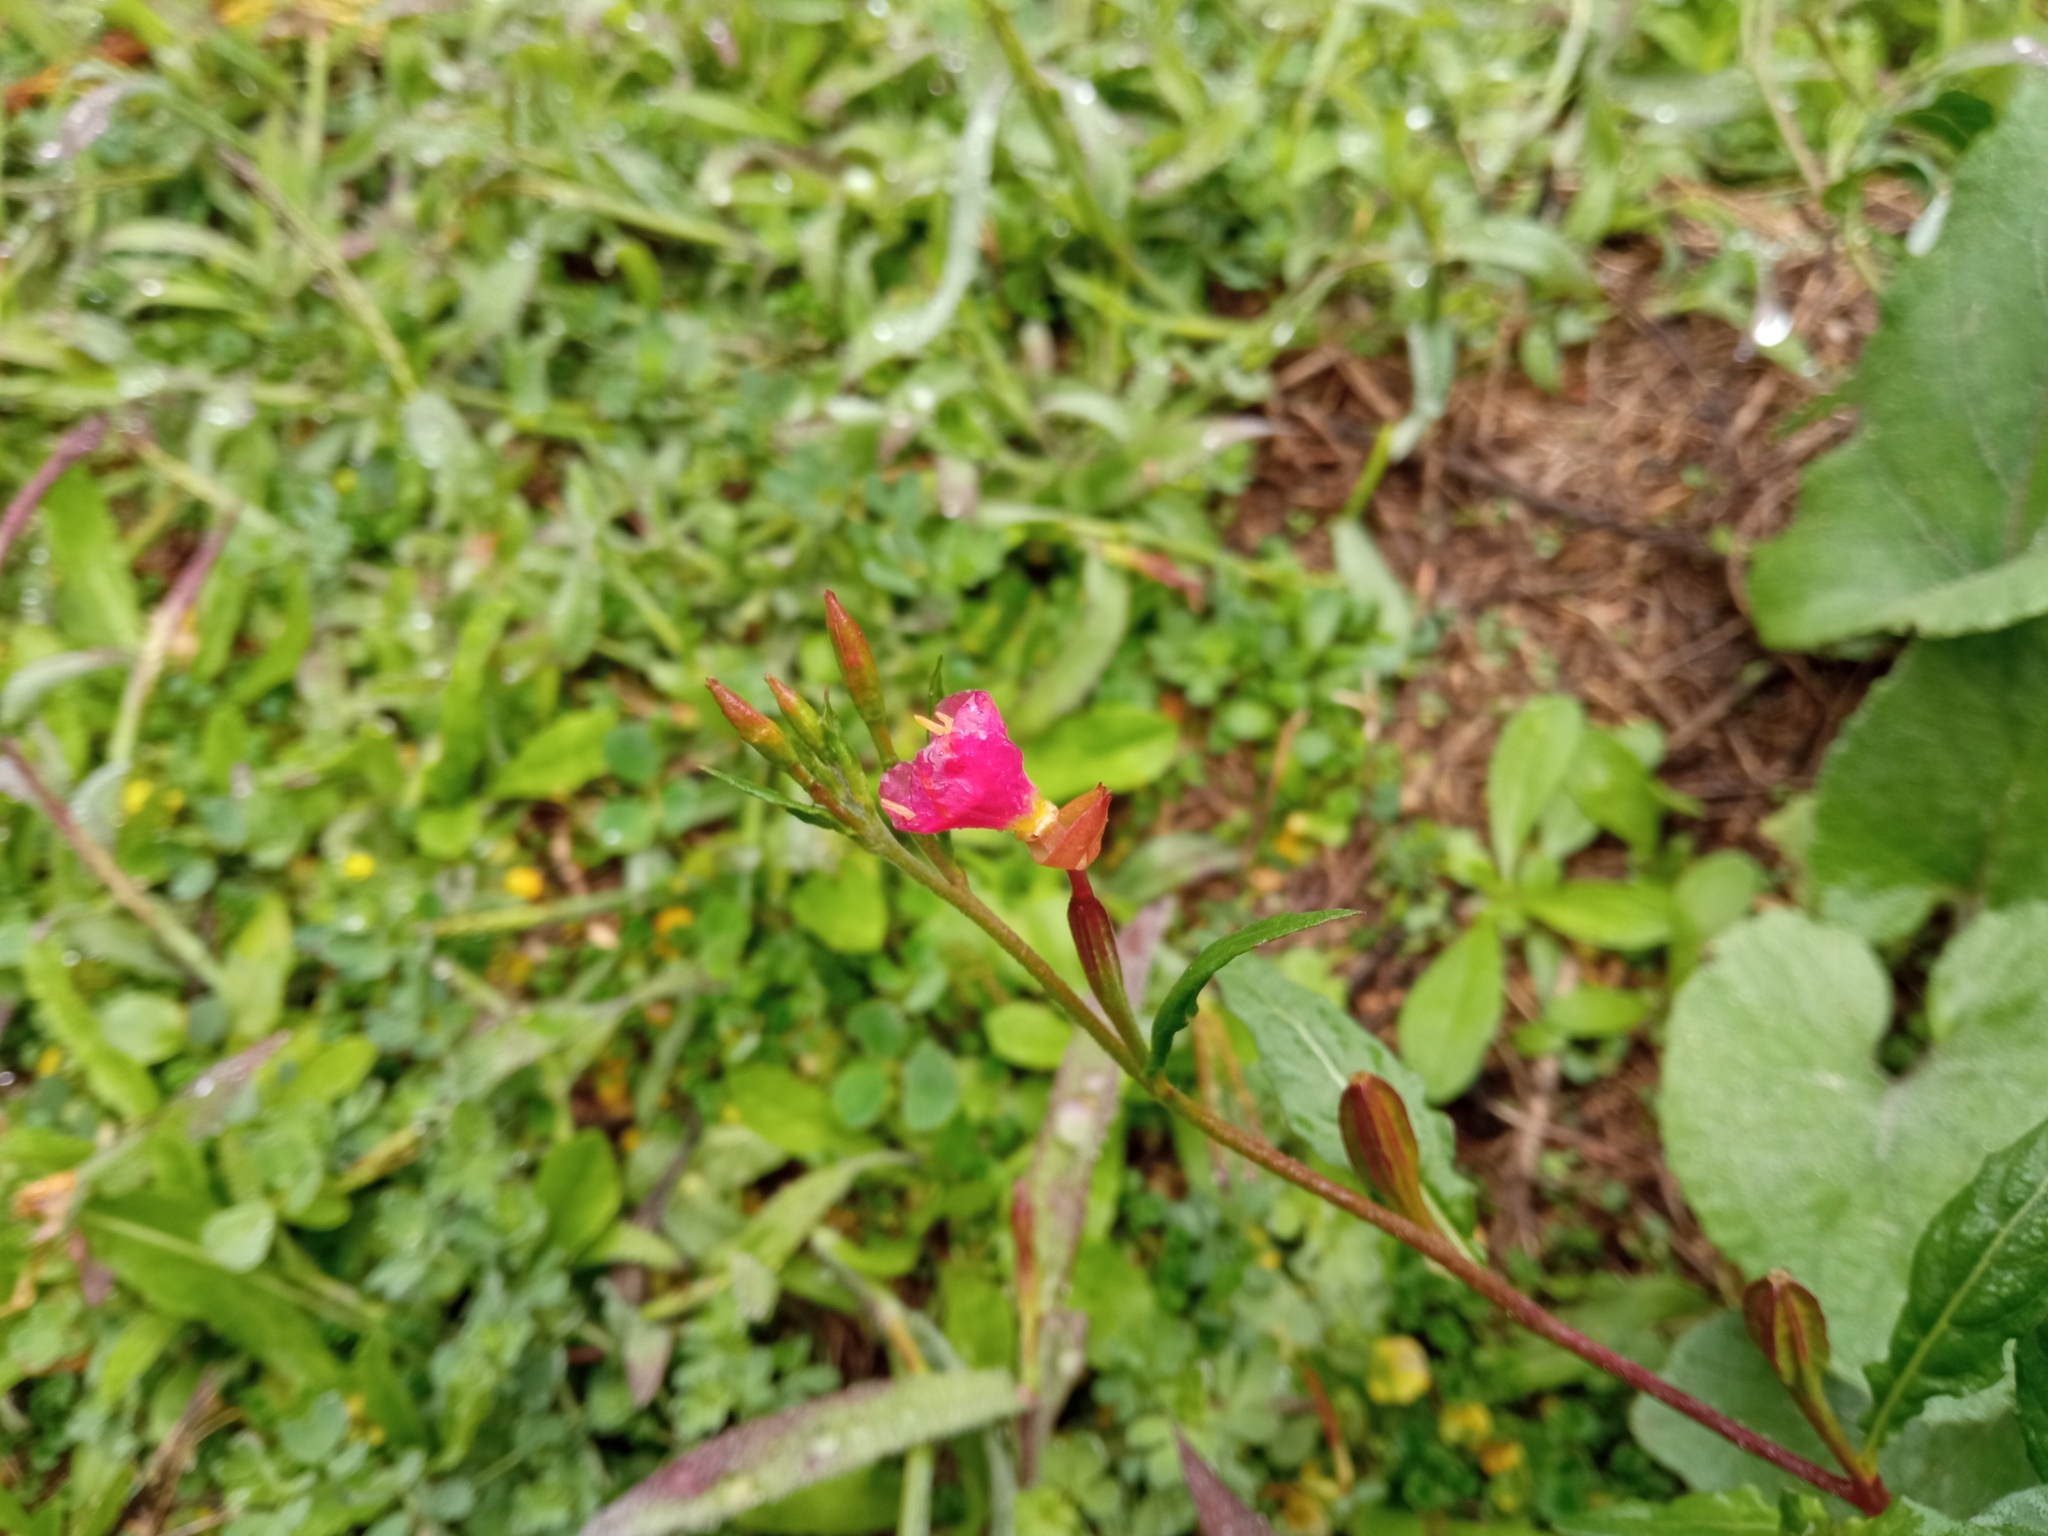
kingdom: Plantae
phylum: Tracheophyta
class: Magnoliopsida
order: Myrtales
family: Onagraceae
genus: Oenothera
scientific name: Oenothera rosea
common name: Rosy evening-primrose
